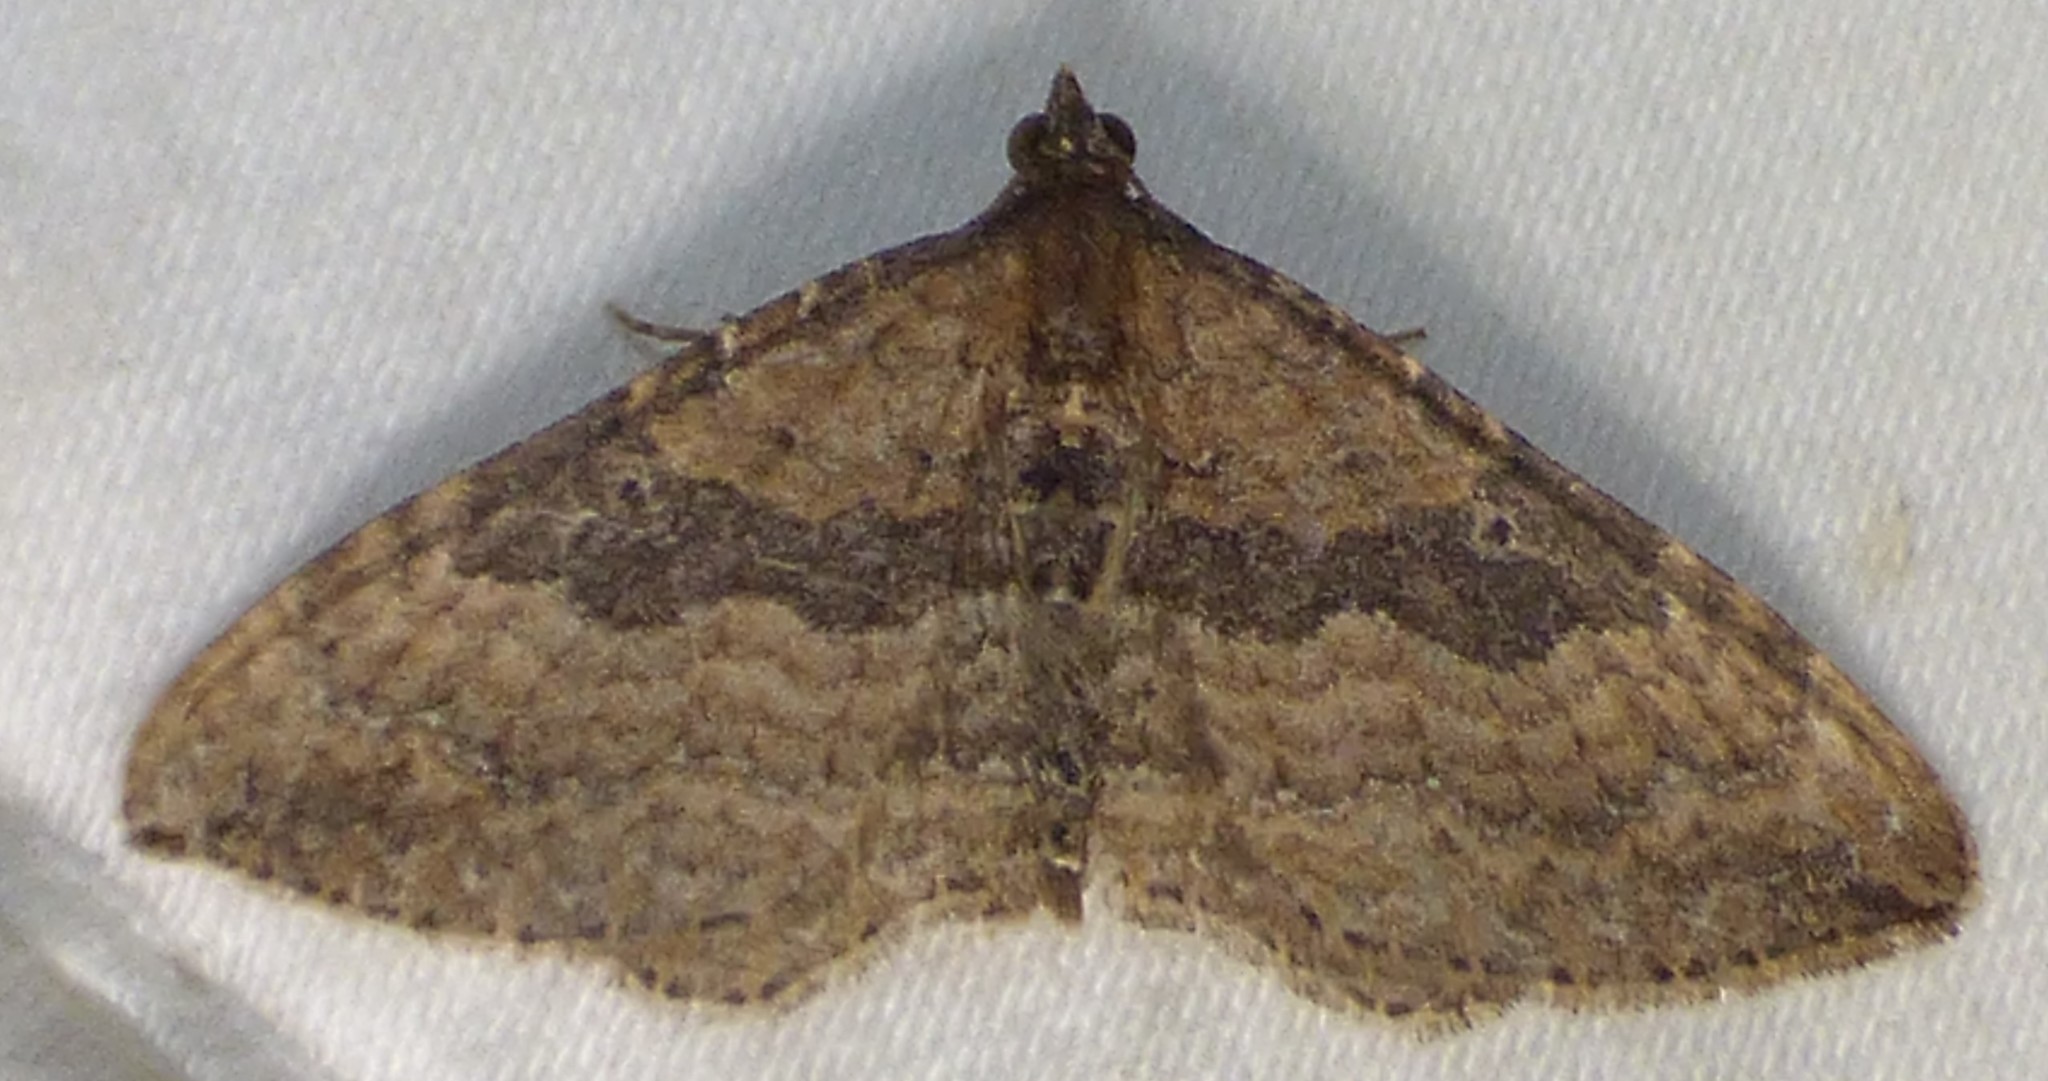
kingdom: Animalia
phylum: Arthropoda
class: Insecta
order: Lepidoptera
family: Geometridae
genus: Orthonama
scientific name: Orthonama obstipata
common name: The gem
